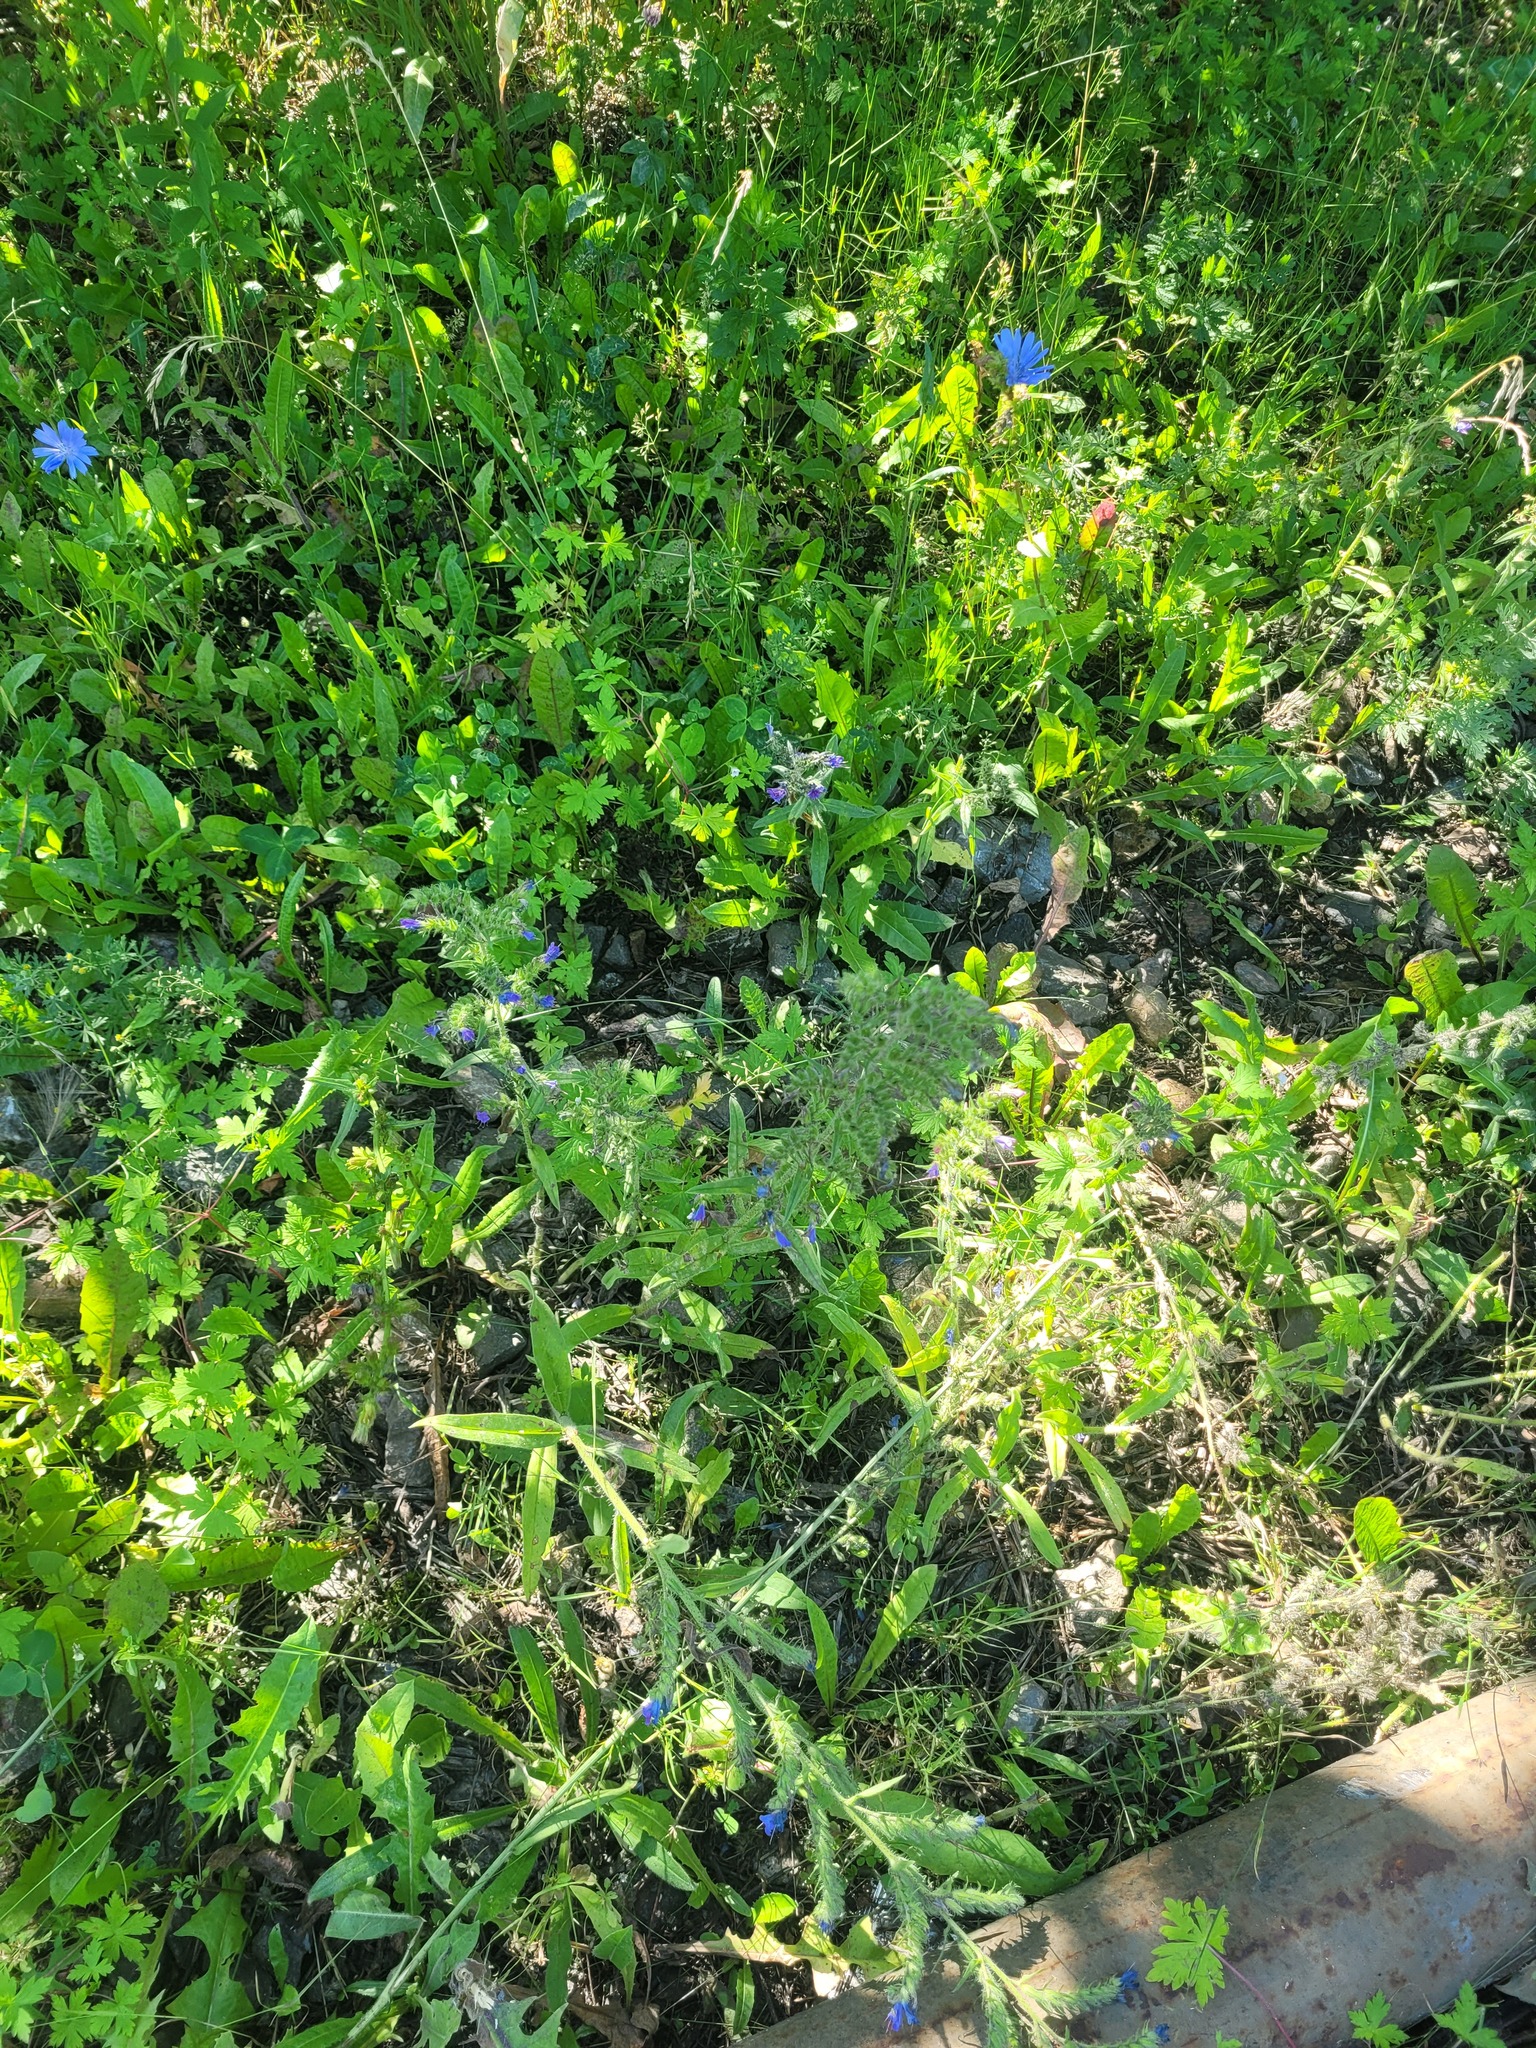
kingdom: Plantae
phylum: Tracheophyta
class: Magnoliopsida
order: Boraginales
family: Boraginaceae
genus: Echium
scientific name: Echium vulgare
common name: Common viper's bugloss
